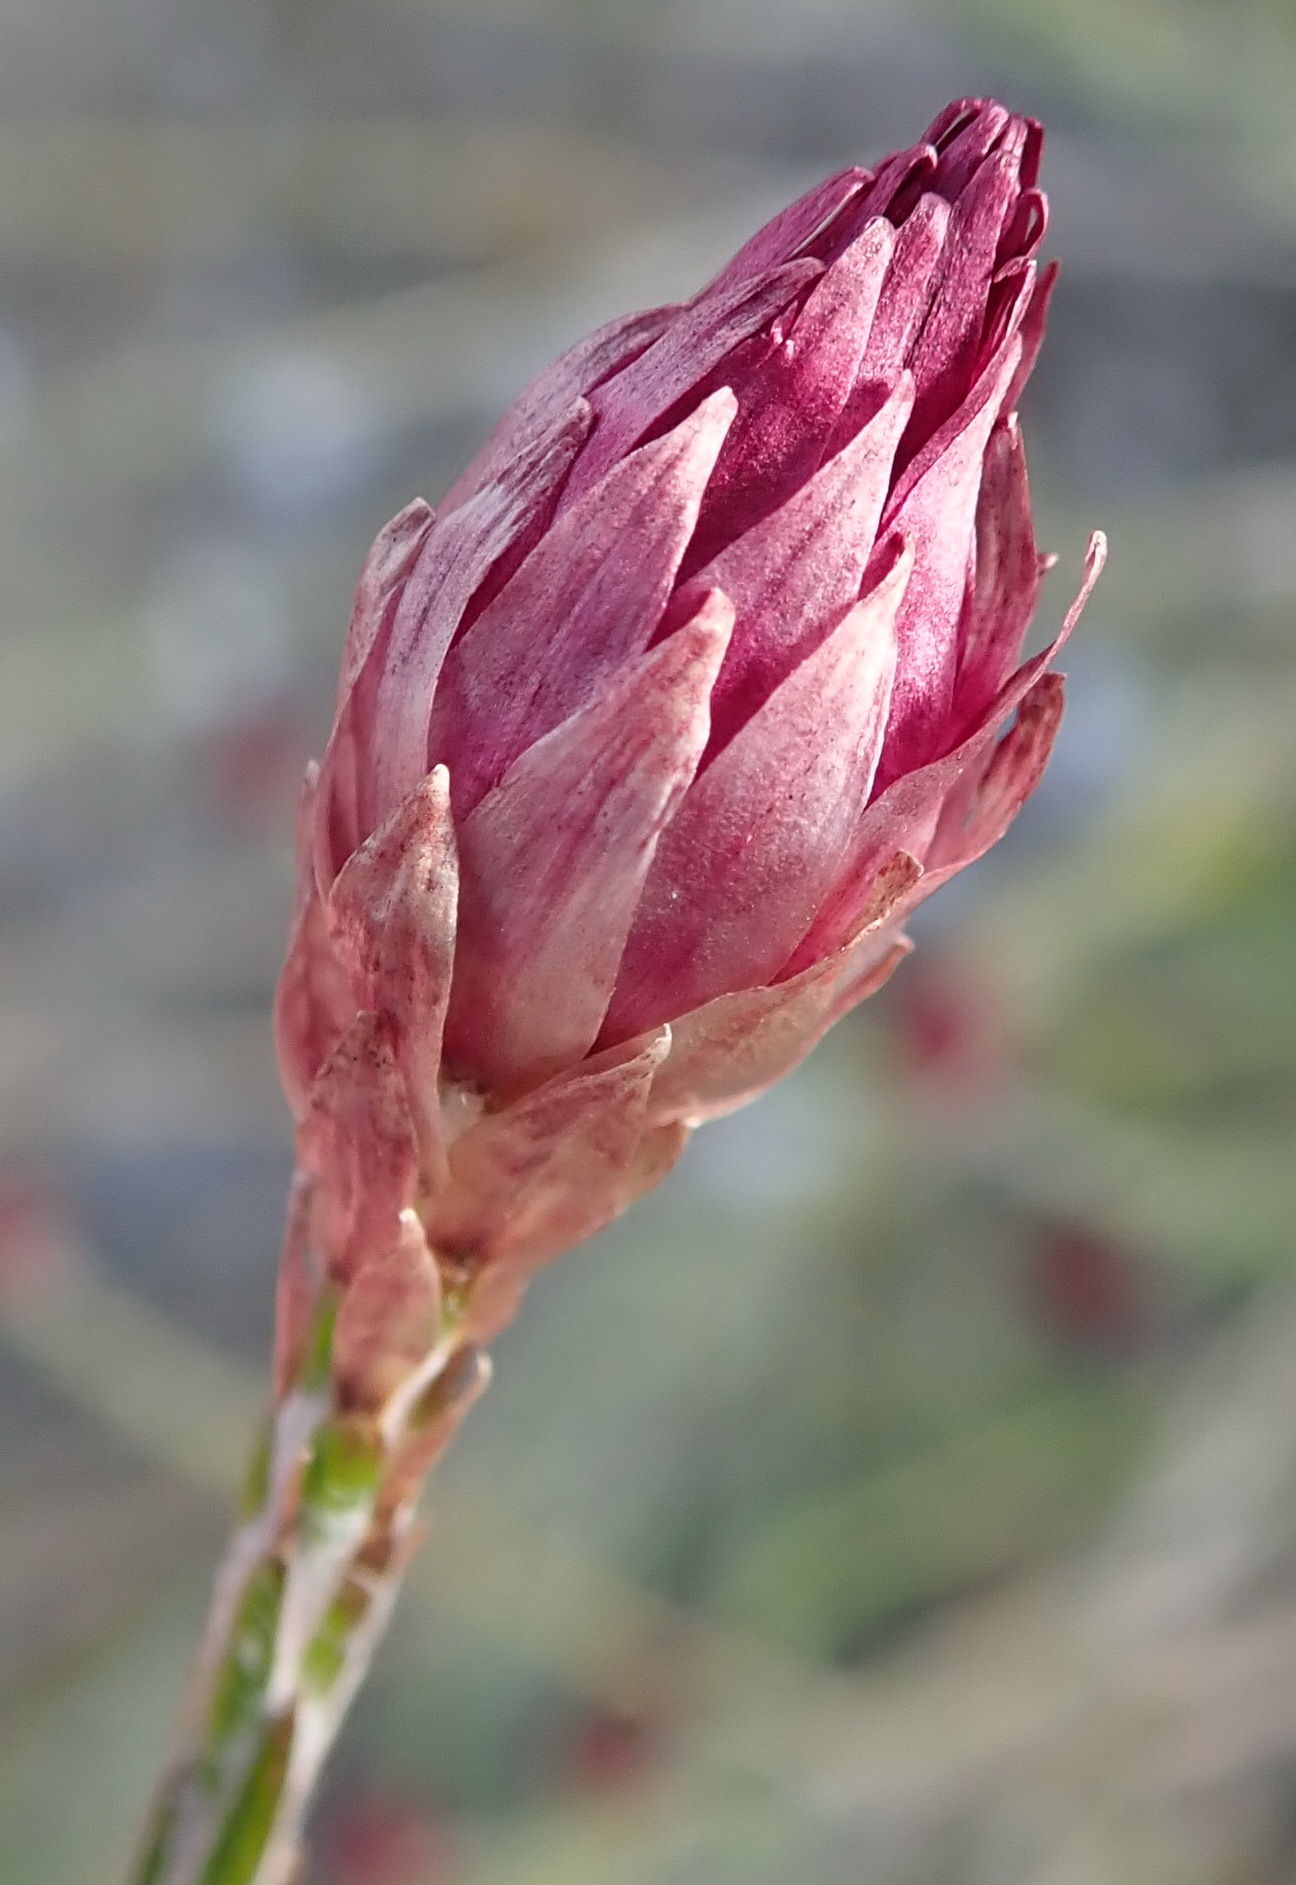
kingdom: Plantae
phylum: Tracheophyta
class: Magnoliopsida
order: Asterales
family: Asteraceae
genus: Edmondia
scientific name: Edmondia sesamoides
